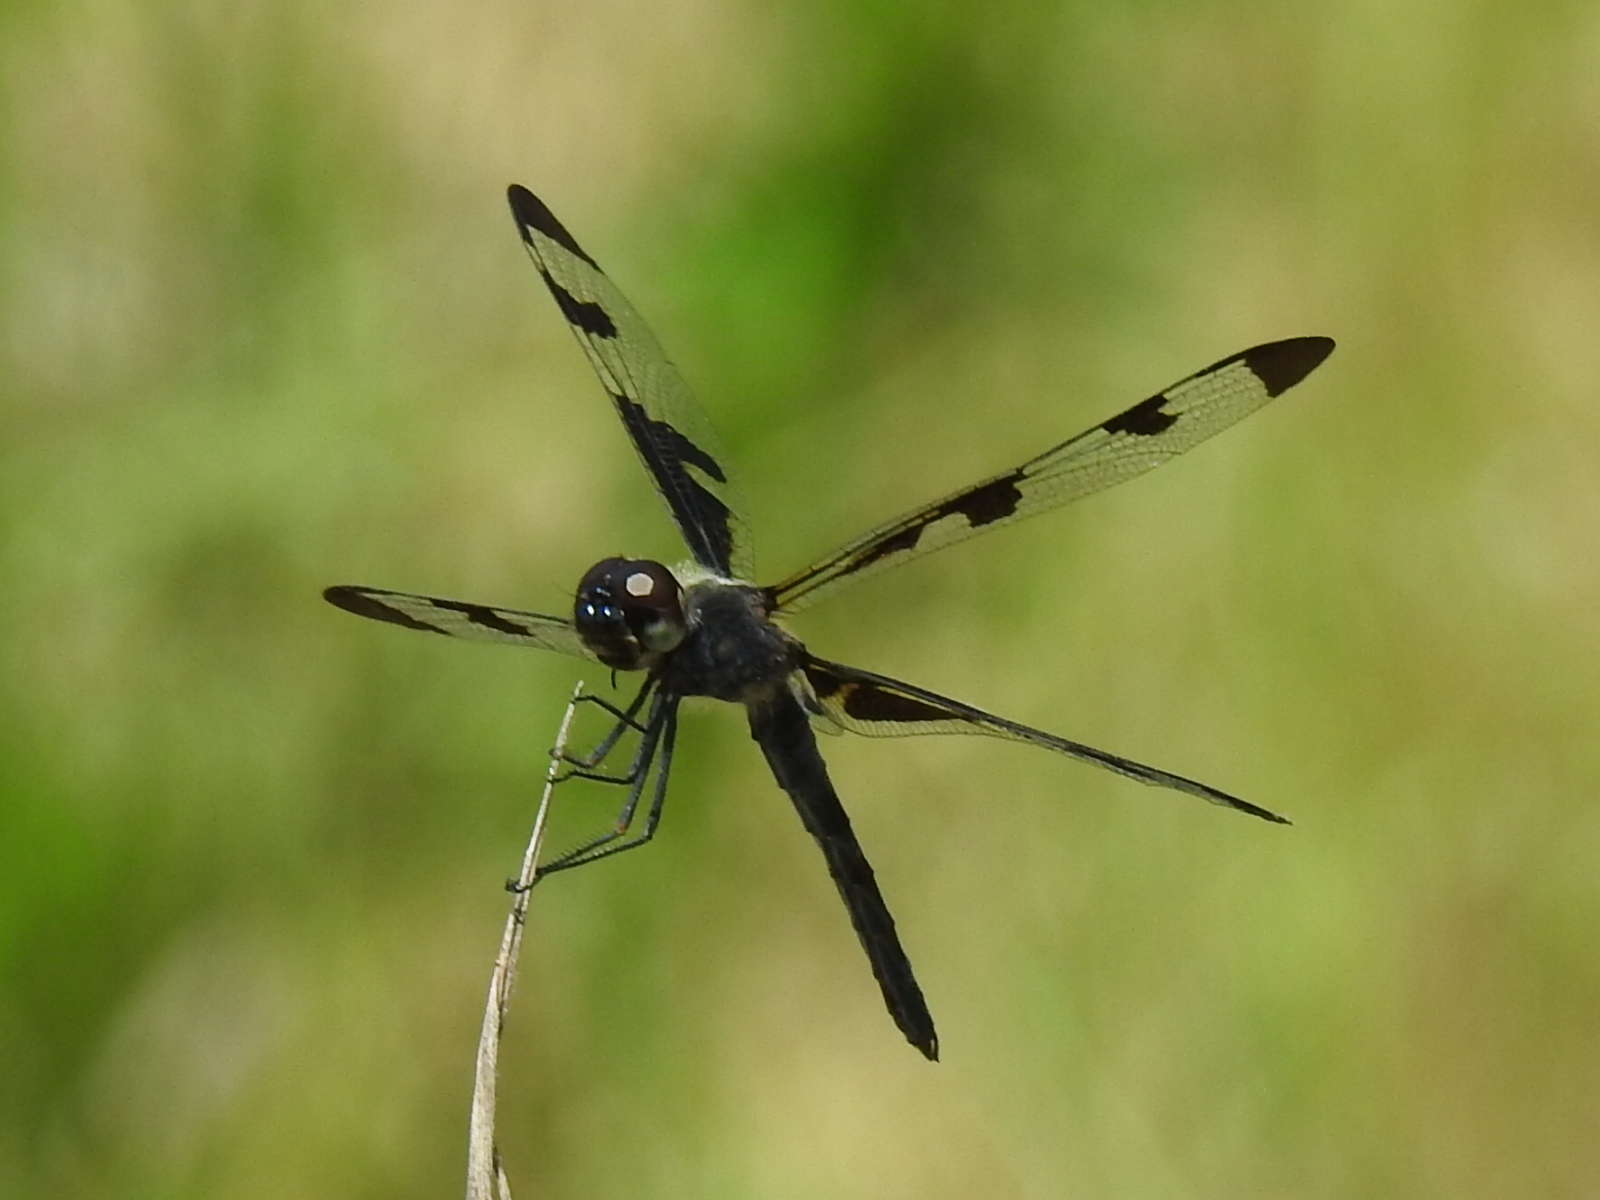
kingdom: Animalia
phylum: Arthropoda
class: Insecta
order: Odonata
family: Libellulidae
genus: Celithemis
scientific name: Celithemis fasciata
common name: Banded pennant
